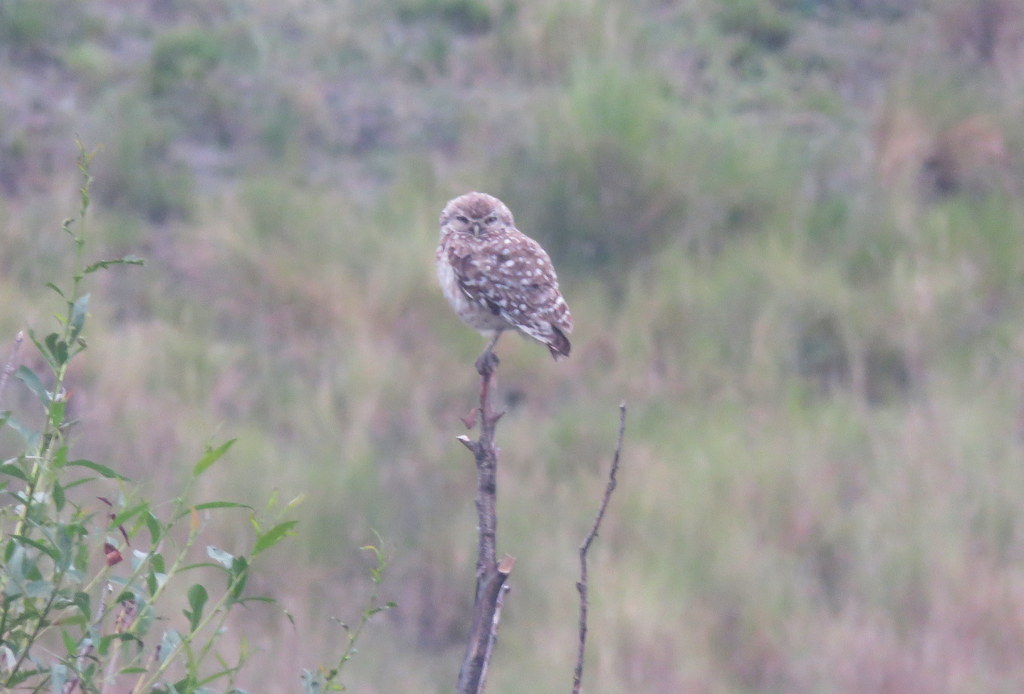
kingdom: Animalia
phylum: Chordata
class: Aves
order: Strigiformes
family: Strigidae
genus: Athene
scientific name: Athene cunicularia
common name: Burrowing owl
